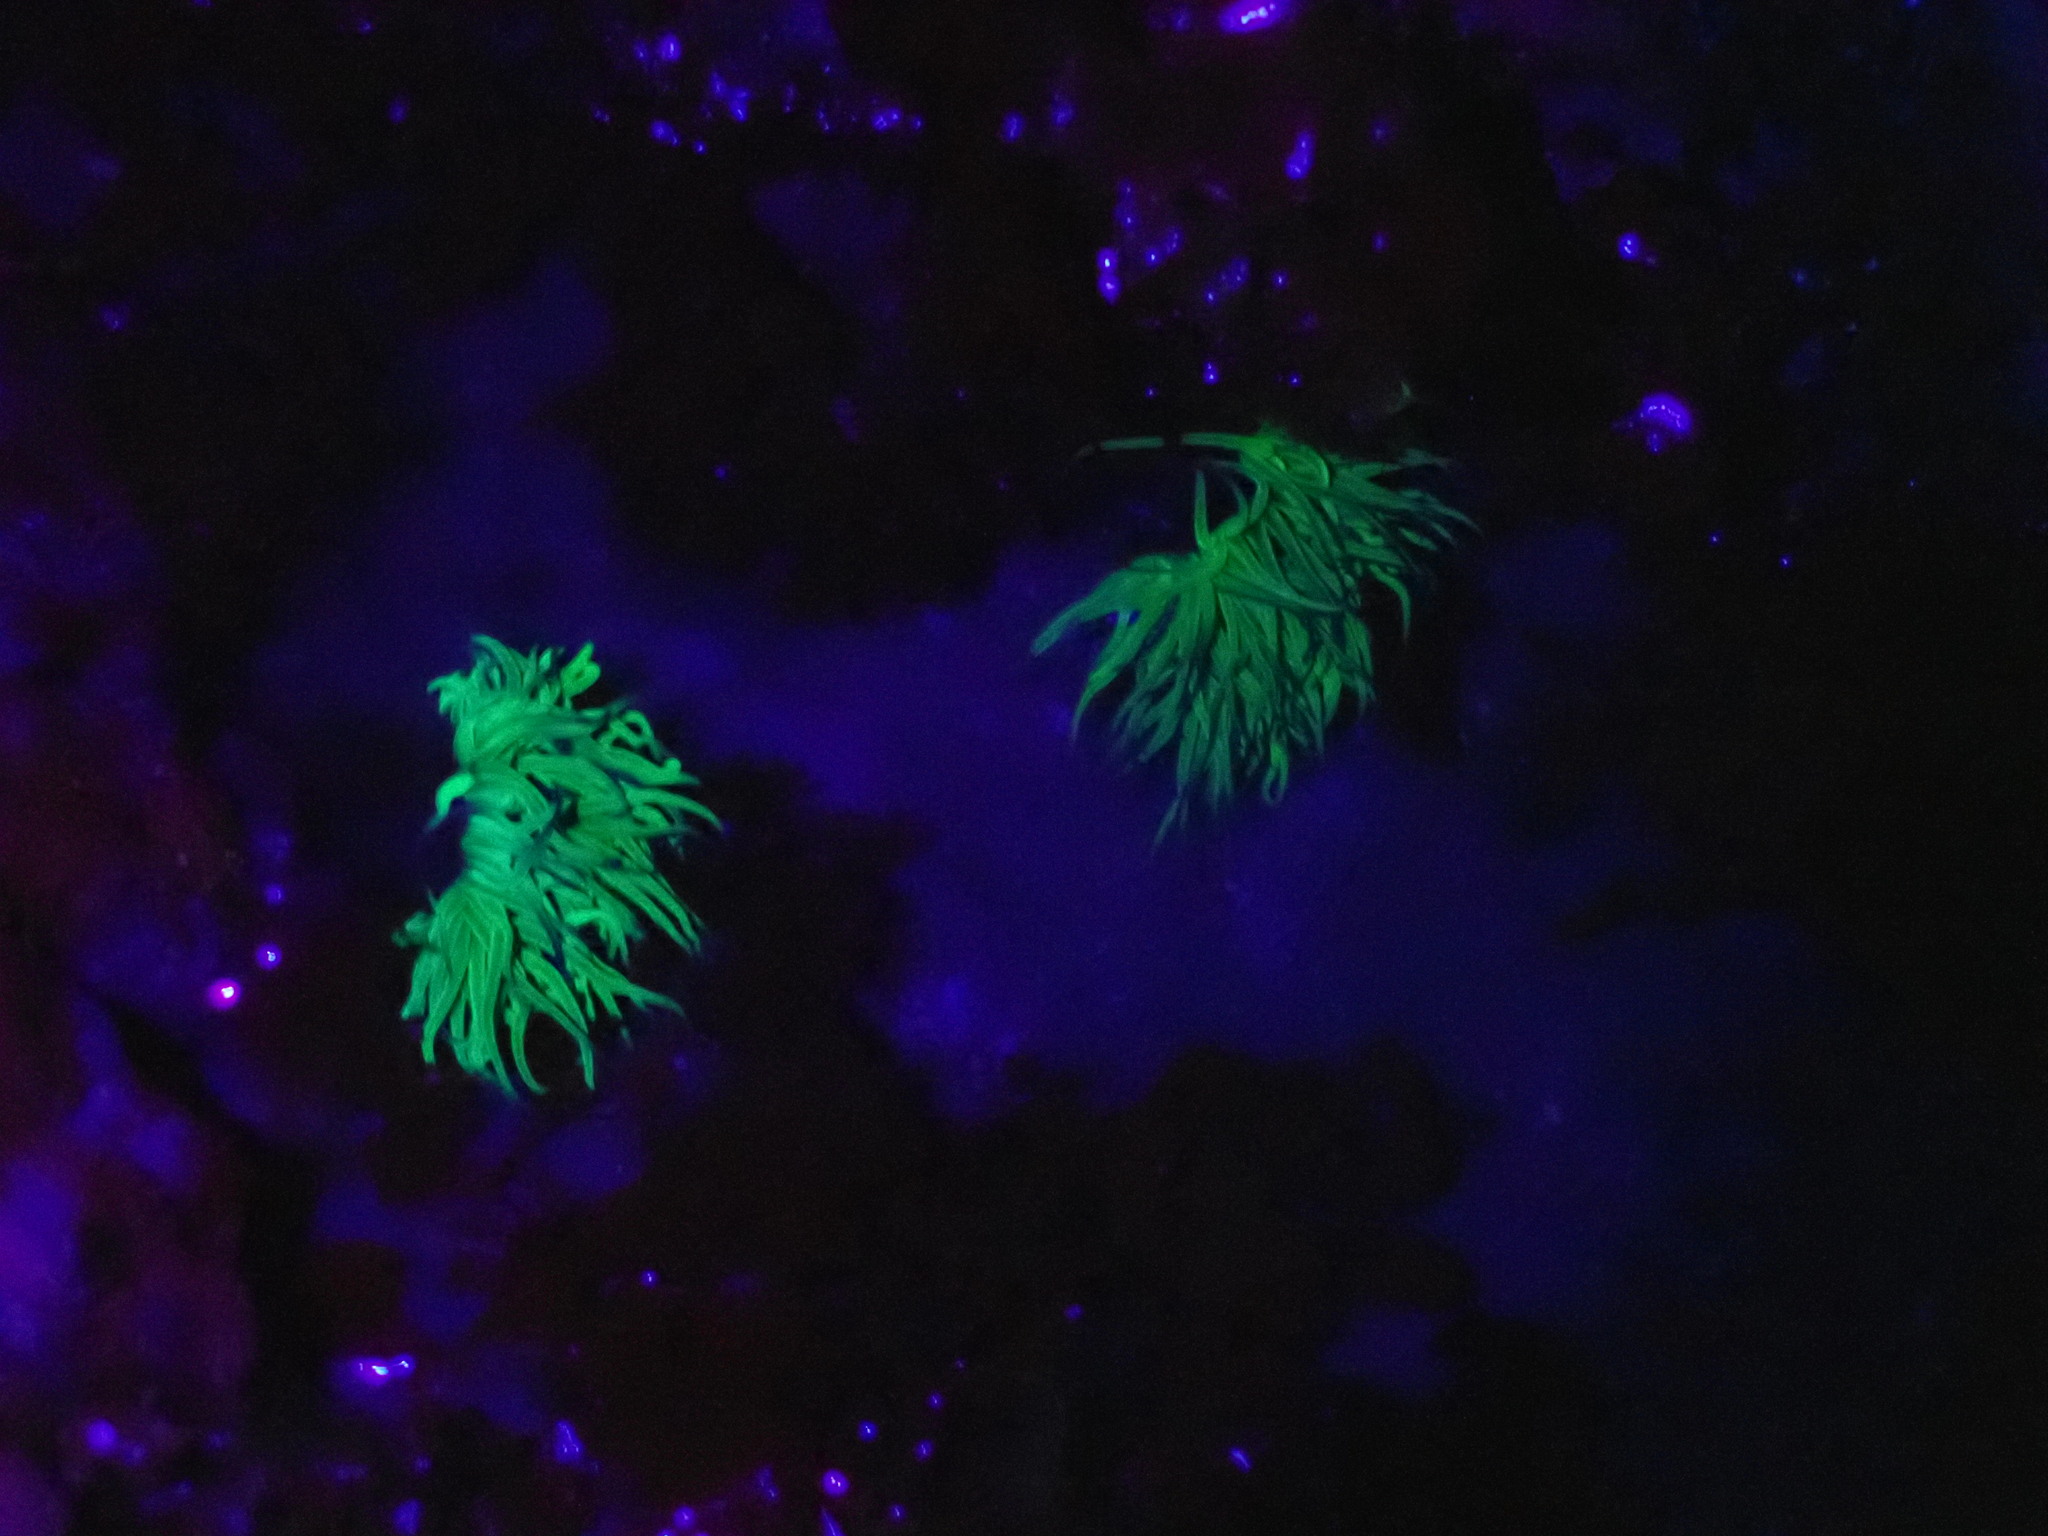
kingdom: Animalia
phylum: Cnidaria
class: Anthozoa
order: Actiniaria
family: Actiniidae
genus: Anemonia
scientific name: Anemonia viridis
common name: Snakelocks anemone
